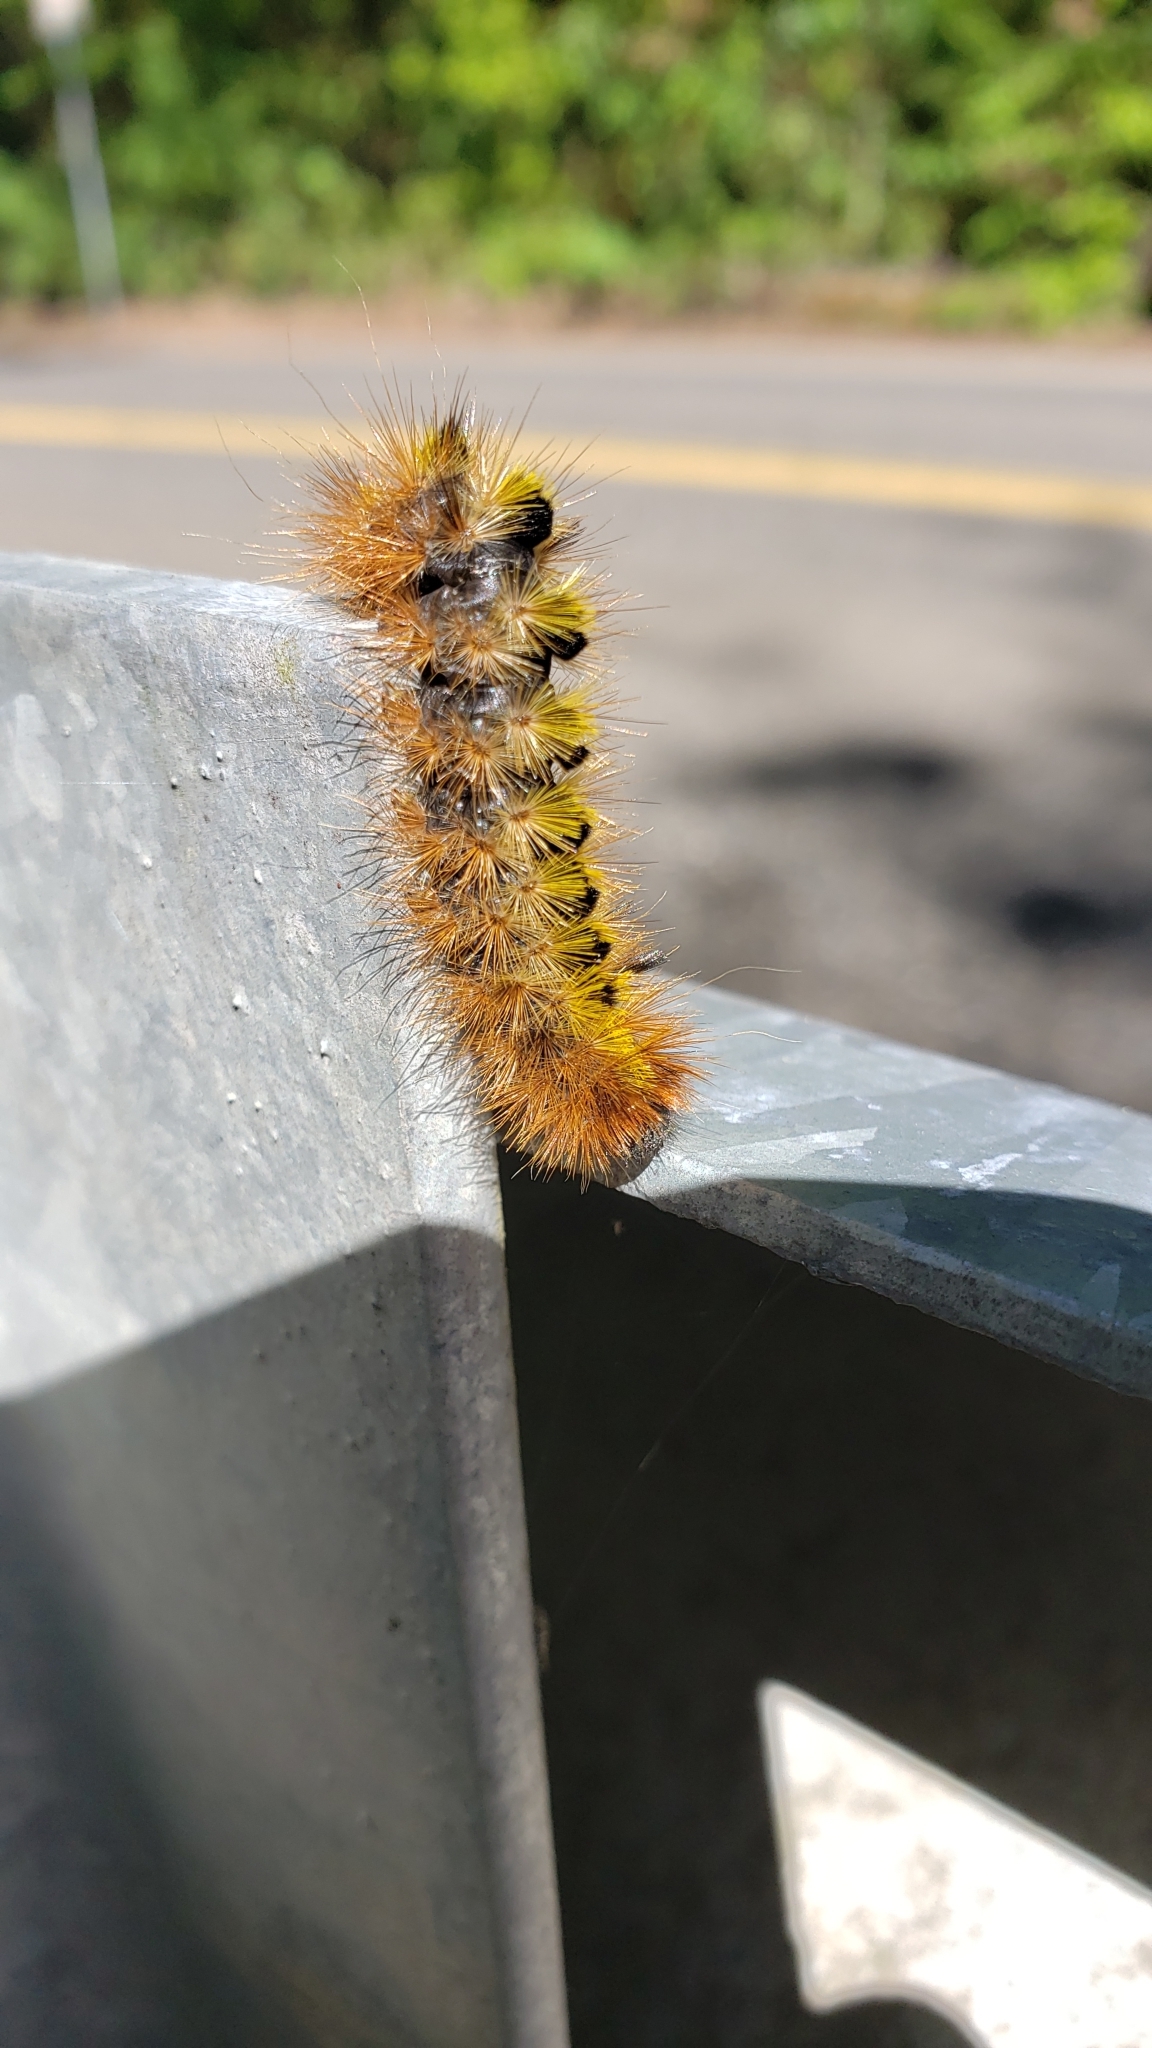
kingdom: Animalia
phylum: Arthropoda
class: Insecta
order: Lepidoptera
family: Erebidae
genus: Lophocampa
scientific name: Lophocampa argentata
